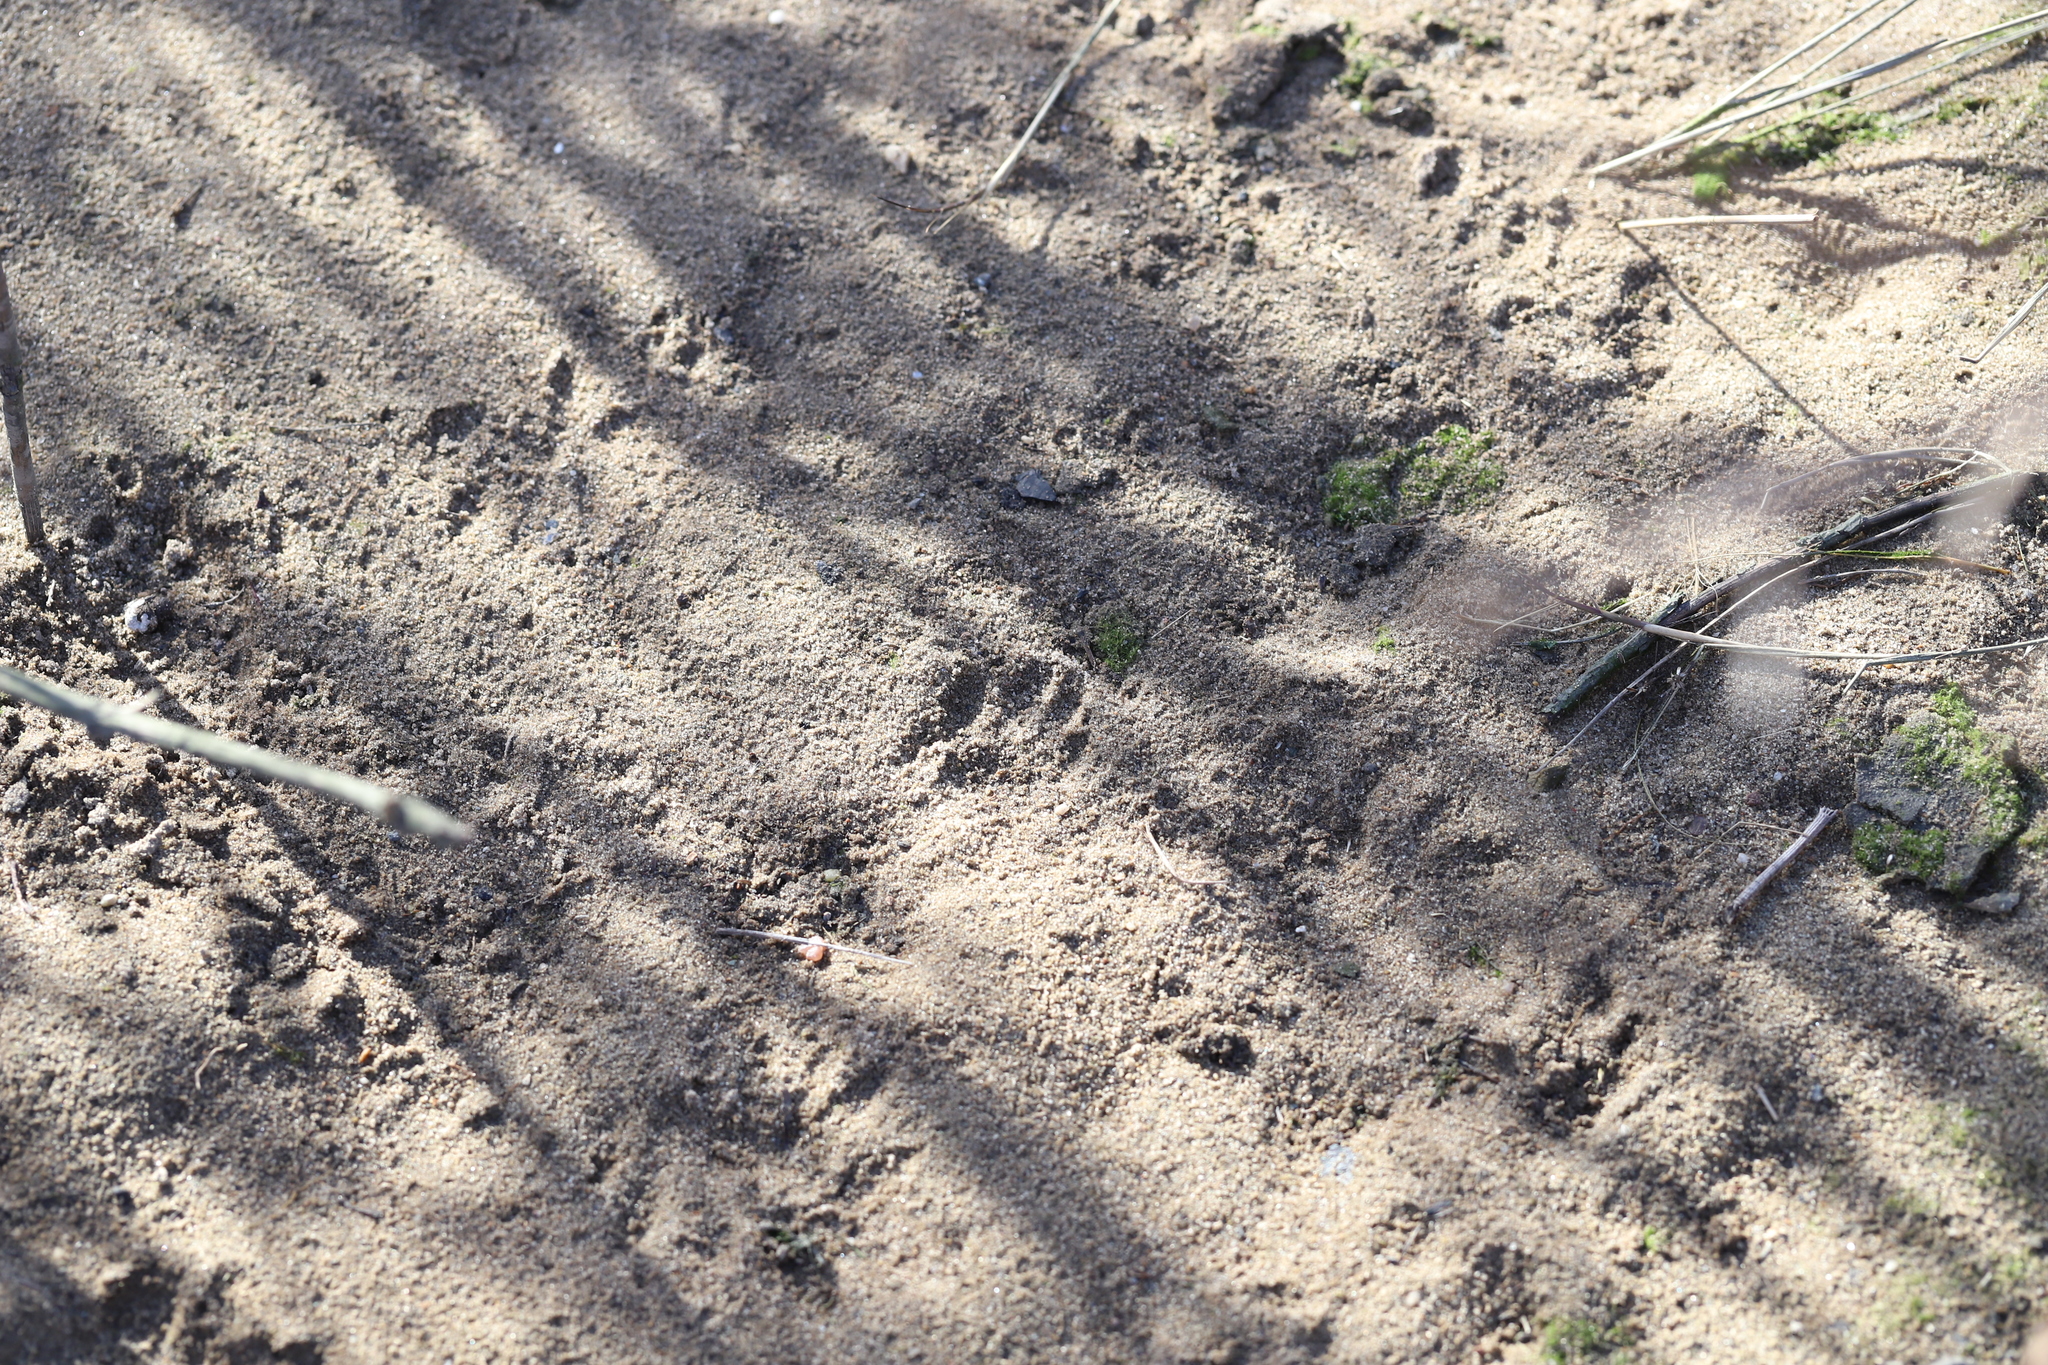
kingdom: Animalia
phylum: Chordata
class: Mammalia
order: Carnivora
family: Procyonidae
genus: Procyon
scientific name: Procyon lotor
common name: Raccoon
